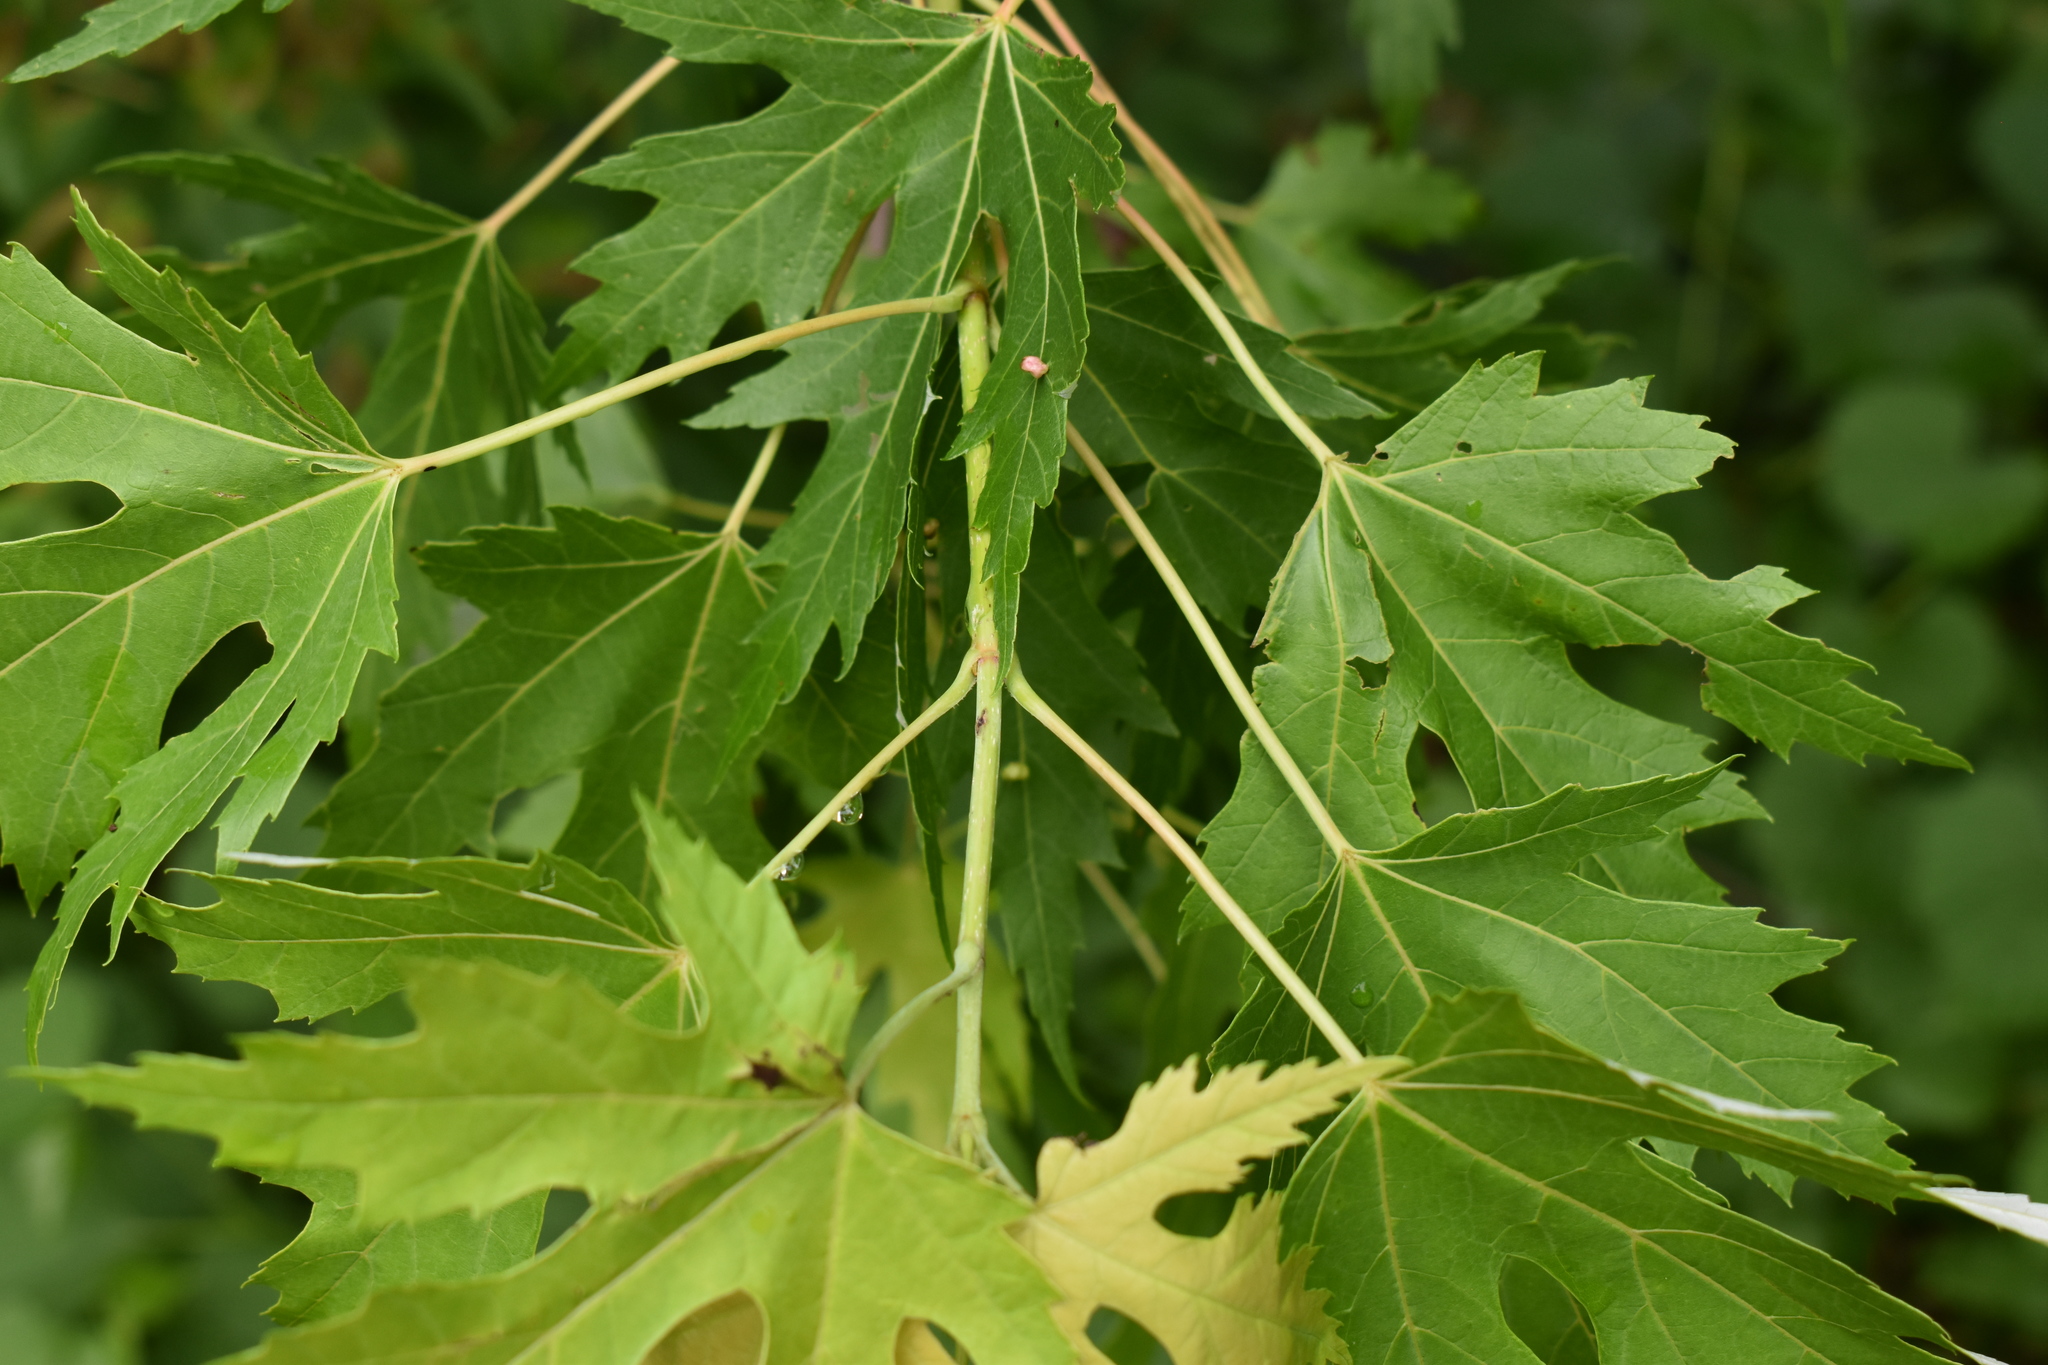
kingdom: Plantae
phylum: Tracheophyta
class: Magnoliopsida
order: Sapindales
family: Sapindaceae
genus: Acer
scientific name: Acer saccharinum
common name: Silver maple
